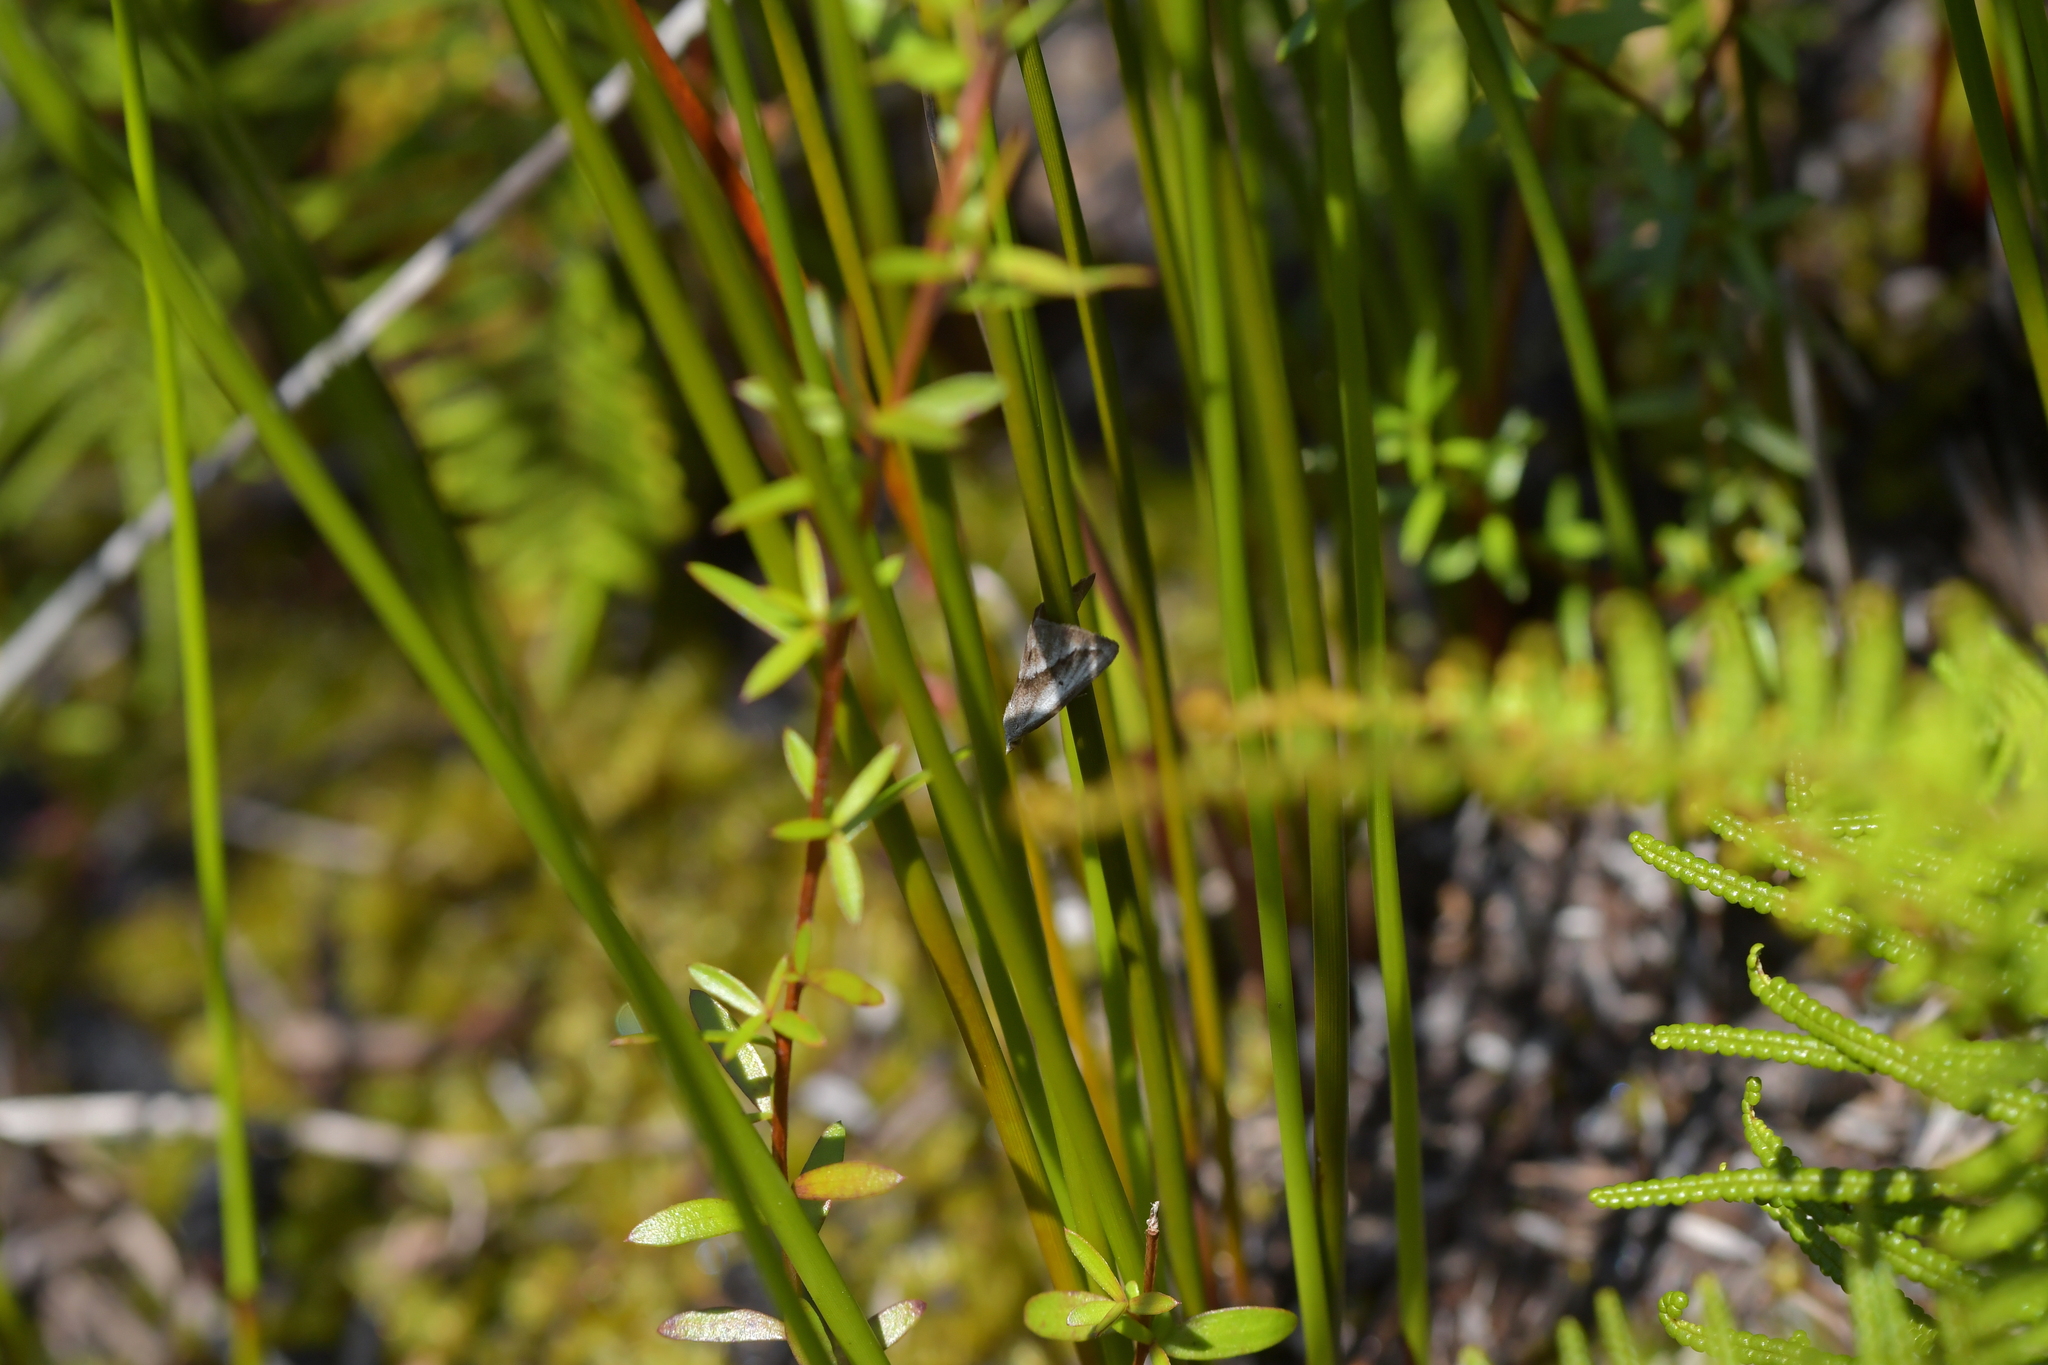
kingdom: Animalia
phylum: Arthropoda
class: Insecta
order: Lepidoptera
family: Geometridae
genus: Adeixis
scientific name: Adeixis griseata
